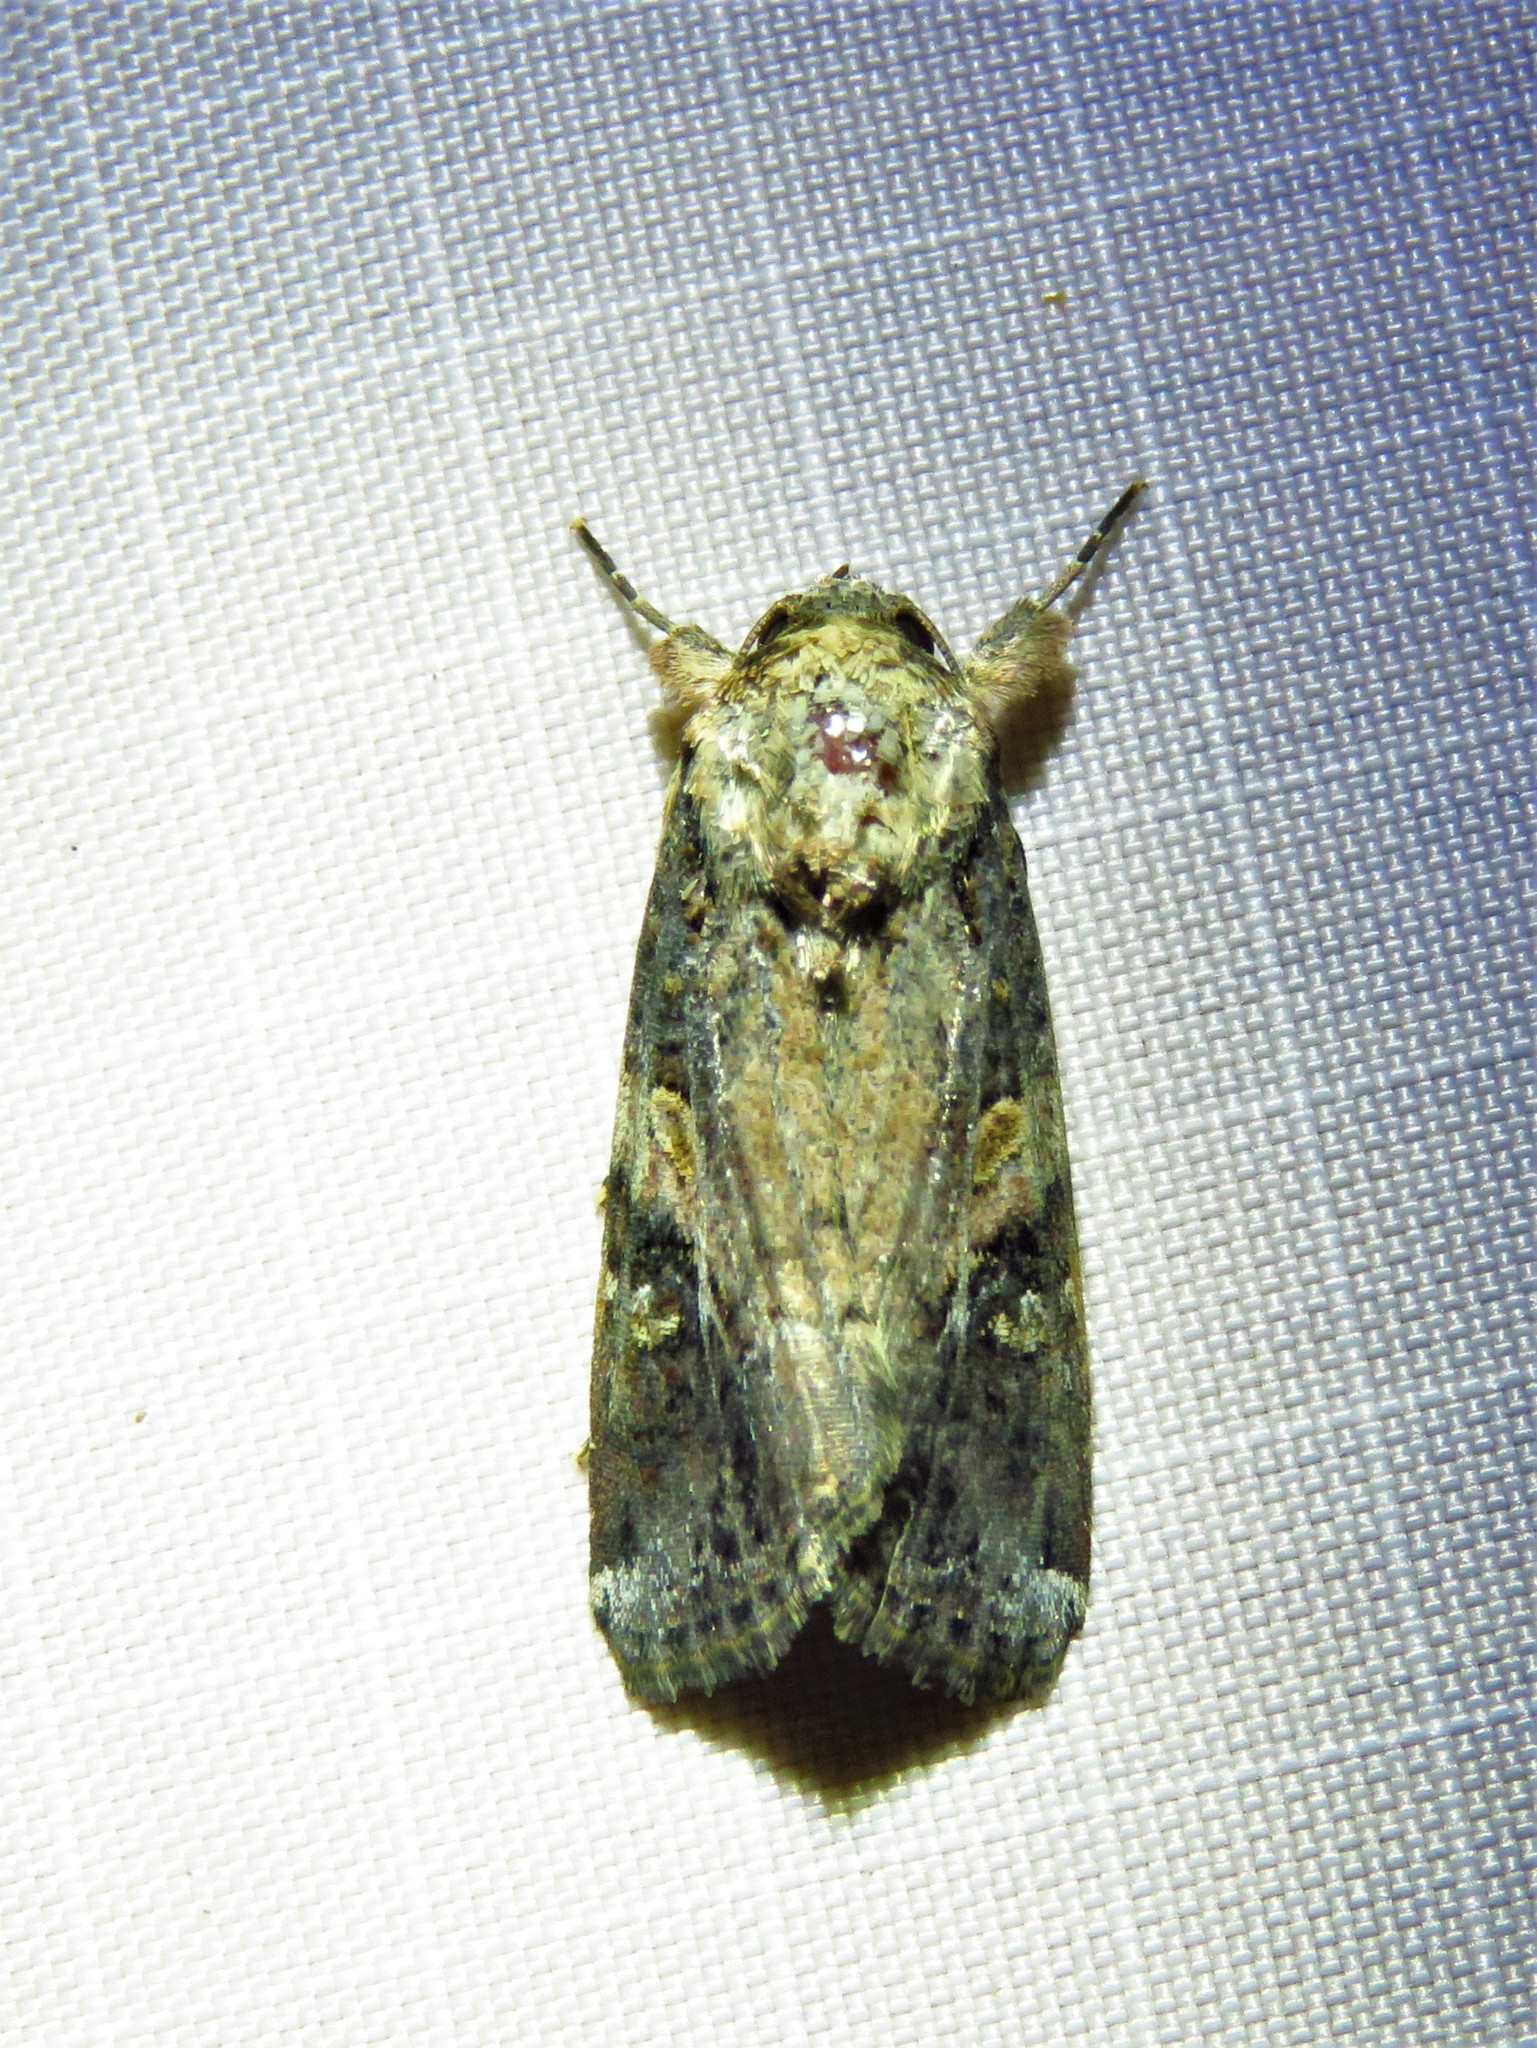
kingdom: Animalia
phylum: Arthropoda
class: Insecta
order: Lepidoptera
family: Noctuidae
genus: Spodoptera
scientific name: Spodoptera frugiperda
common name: Fall armyworm
